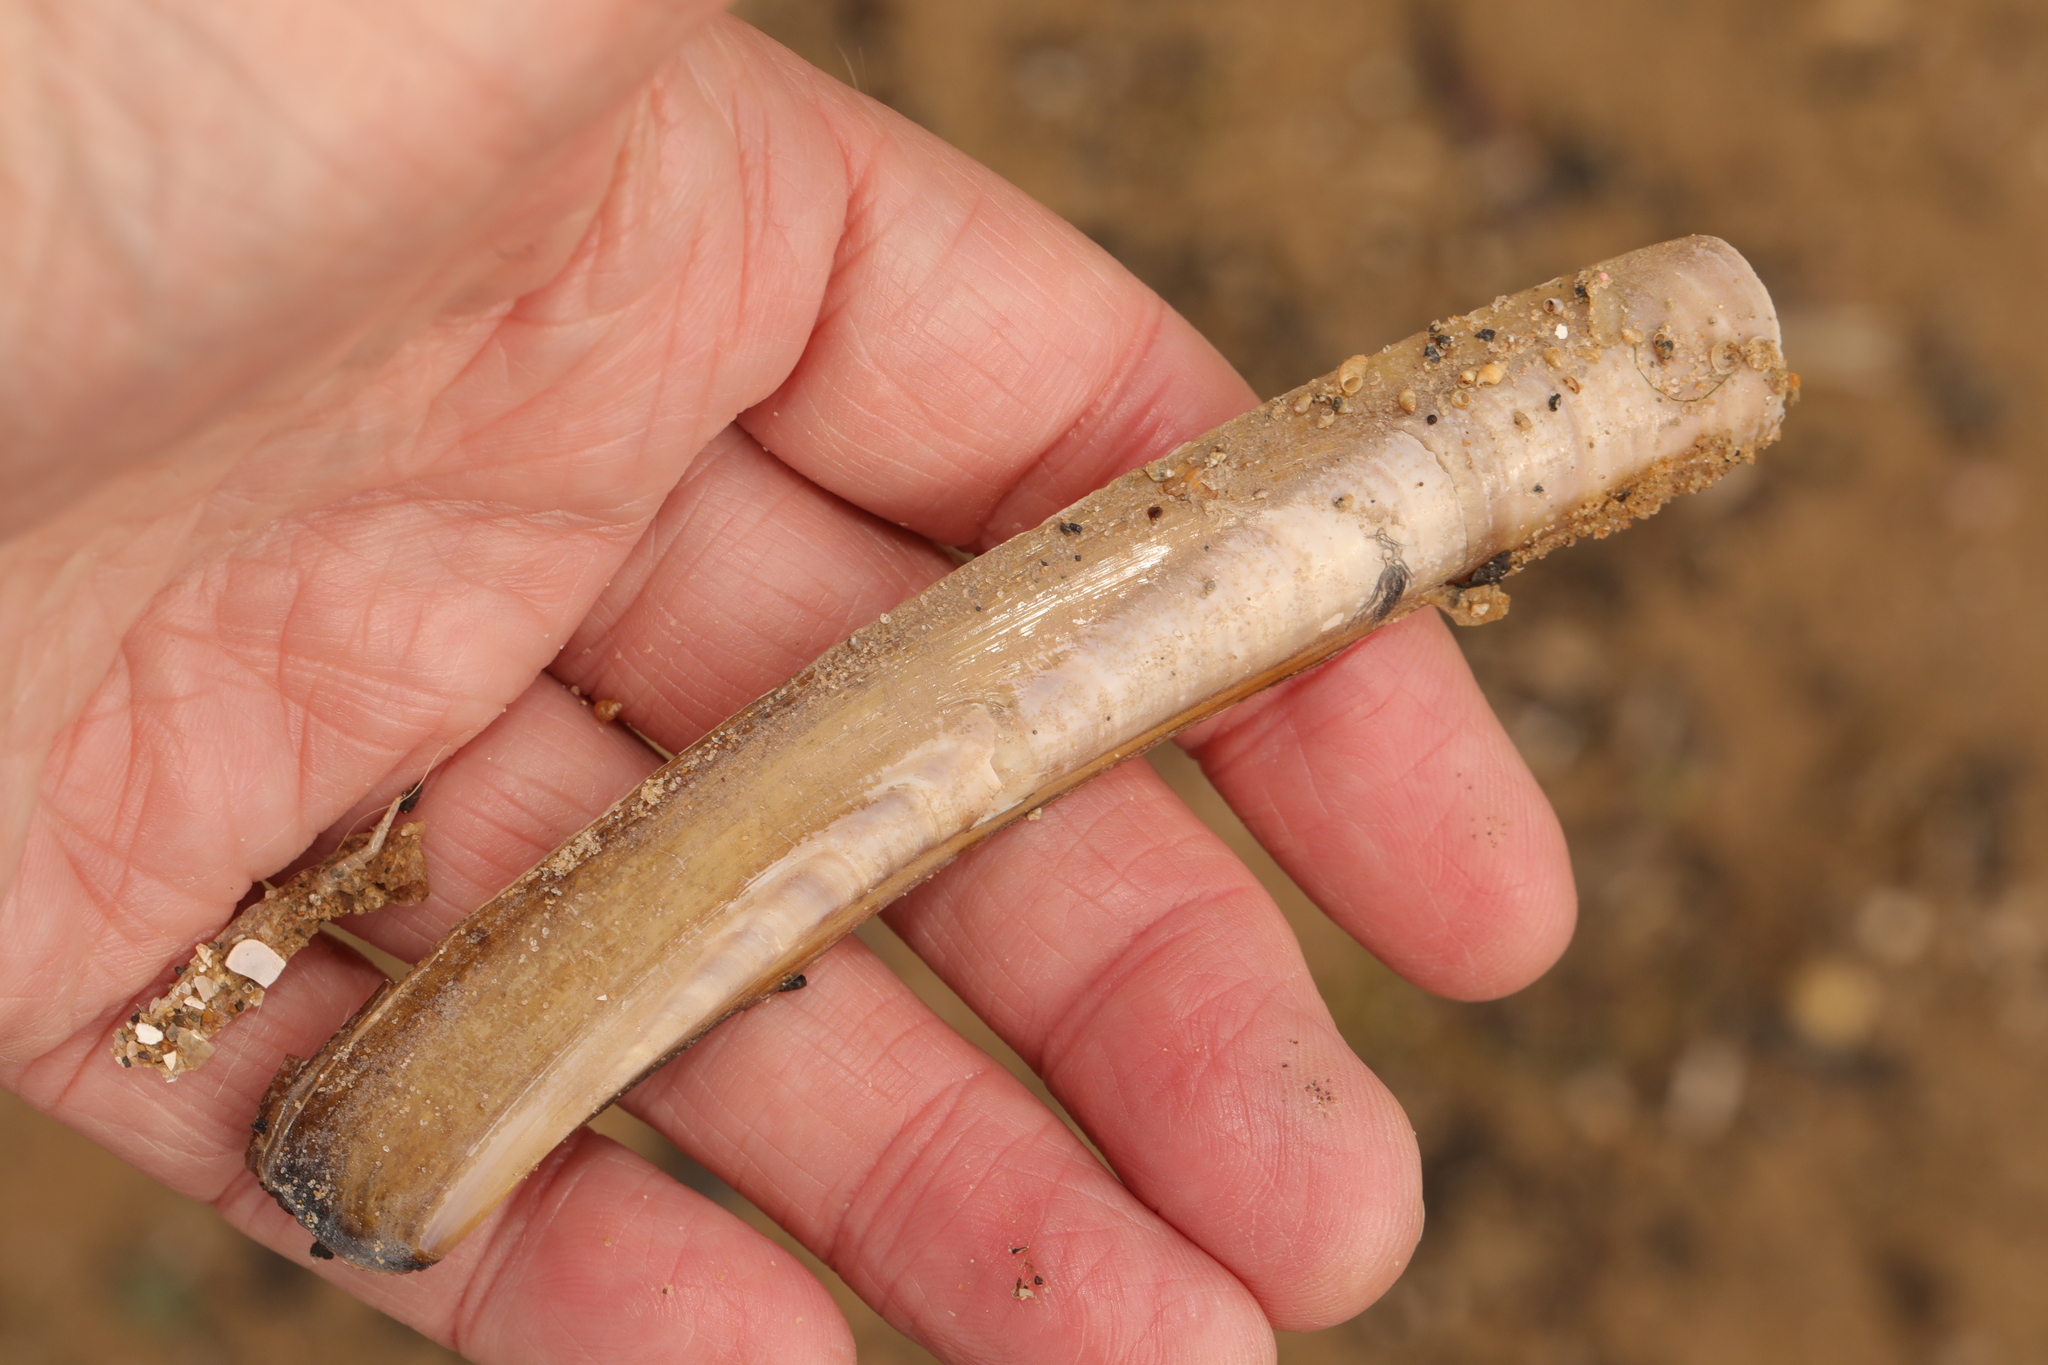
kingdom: Animalia
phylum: Mollusca
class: Bivalvia
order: Adapedonta
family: Pharidae
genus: Ensis
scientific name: Ensis leei
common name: American jack knife clam
